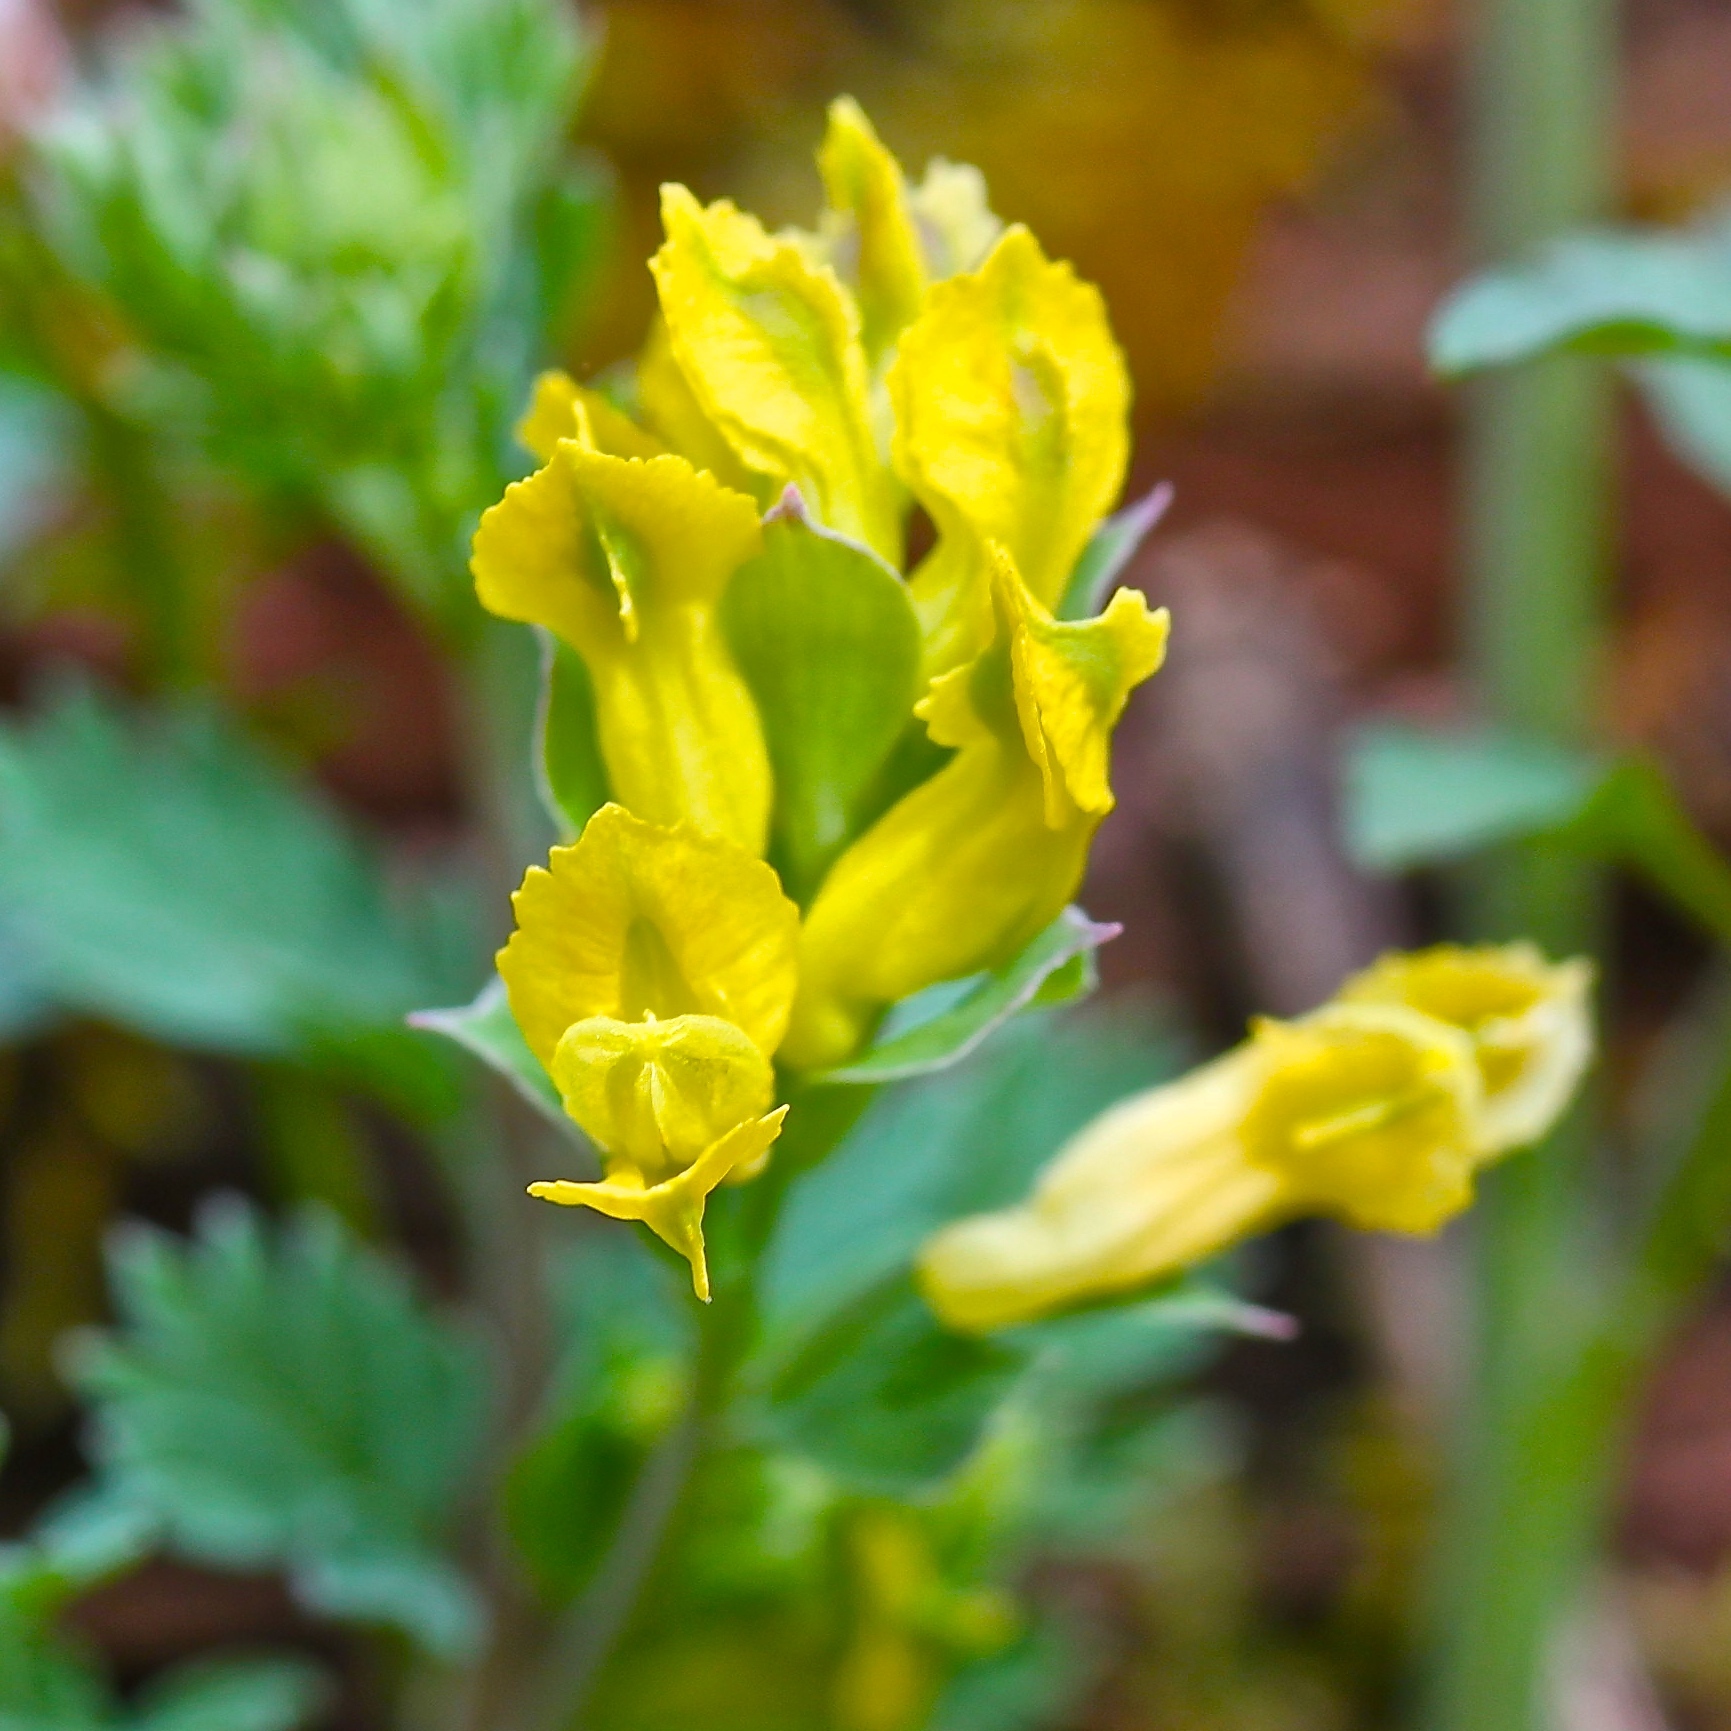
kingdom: Plantae
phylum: Tracheophyta
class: Magnoliopsida
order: Ranunculales
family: Papaveraceae
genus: Corydalis
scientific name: Corydalis flavula
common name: Yellow corydalis
